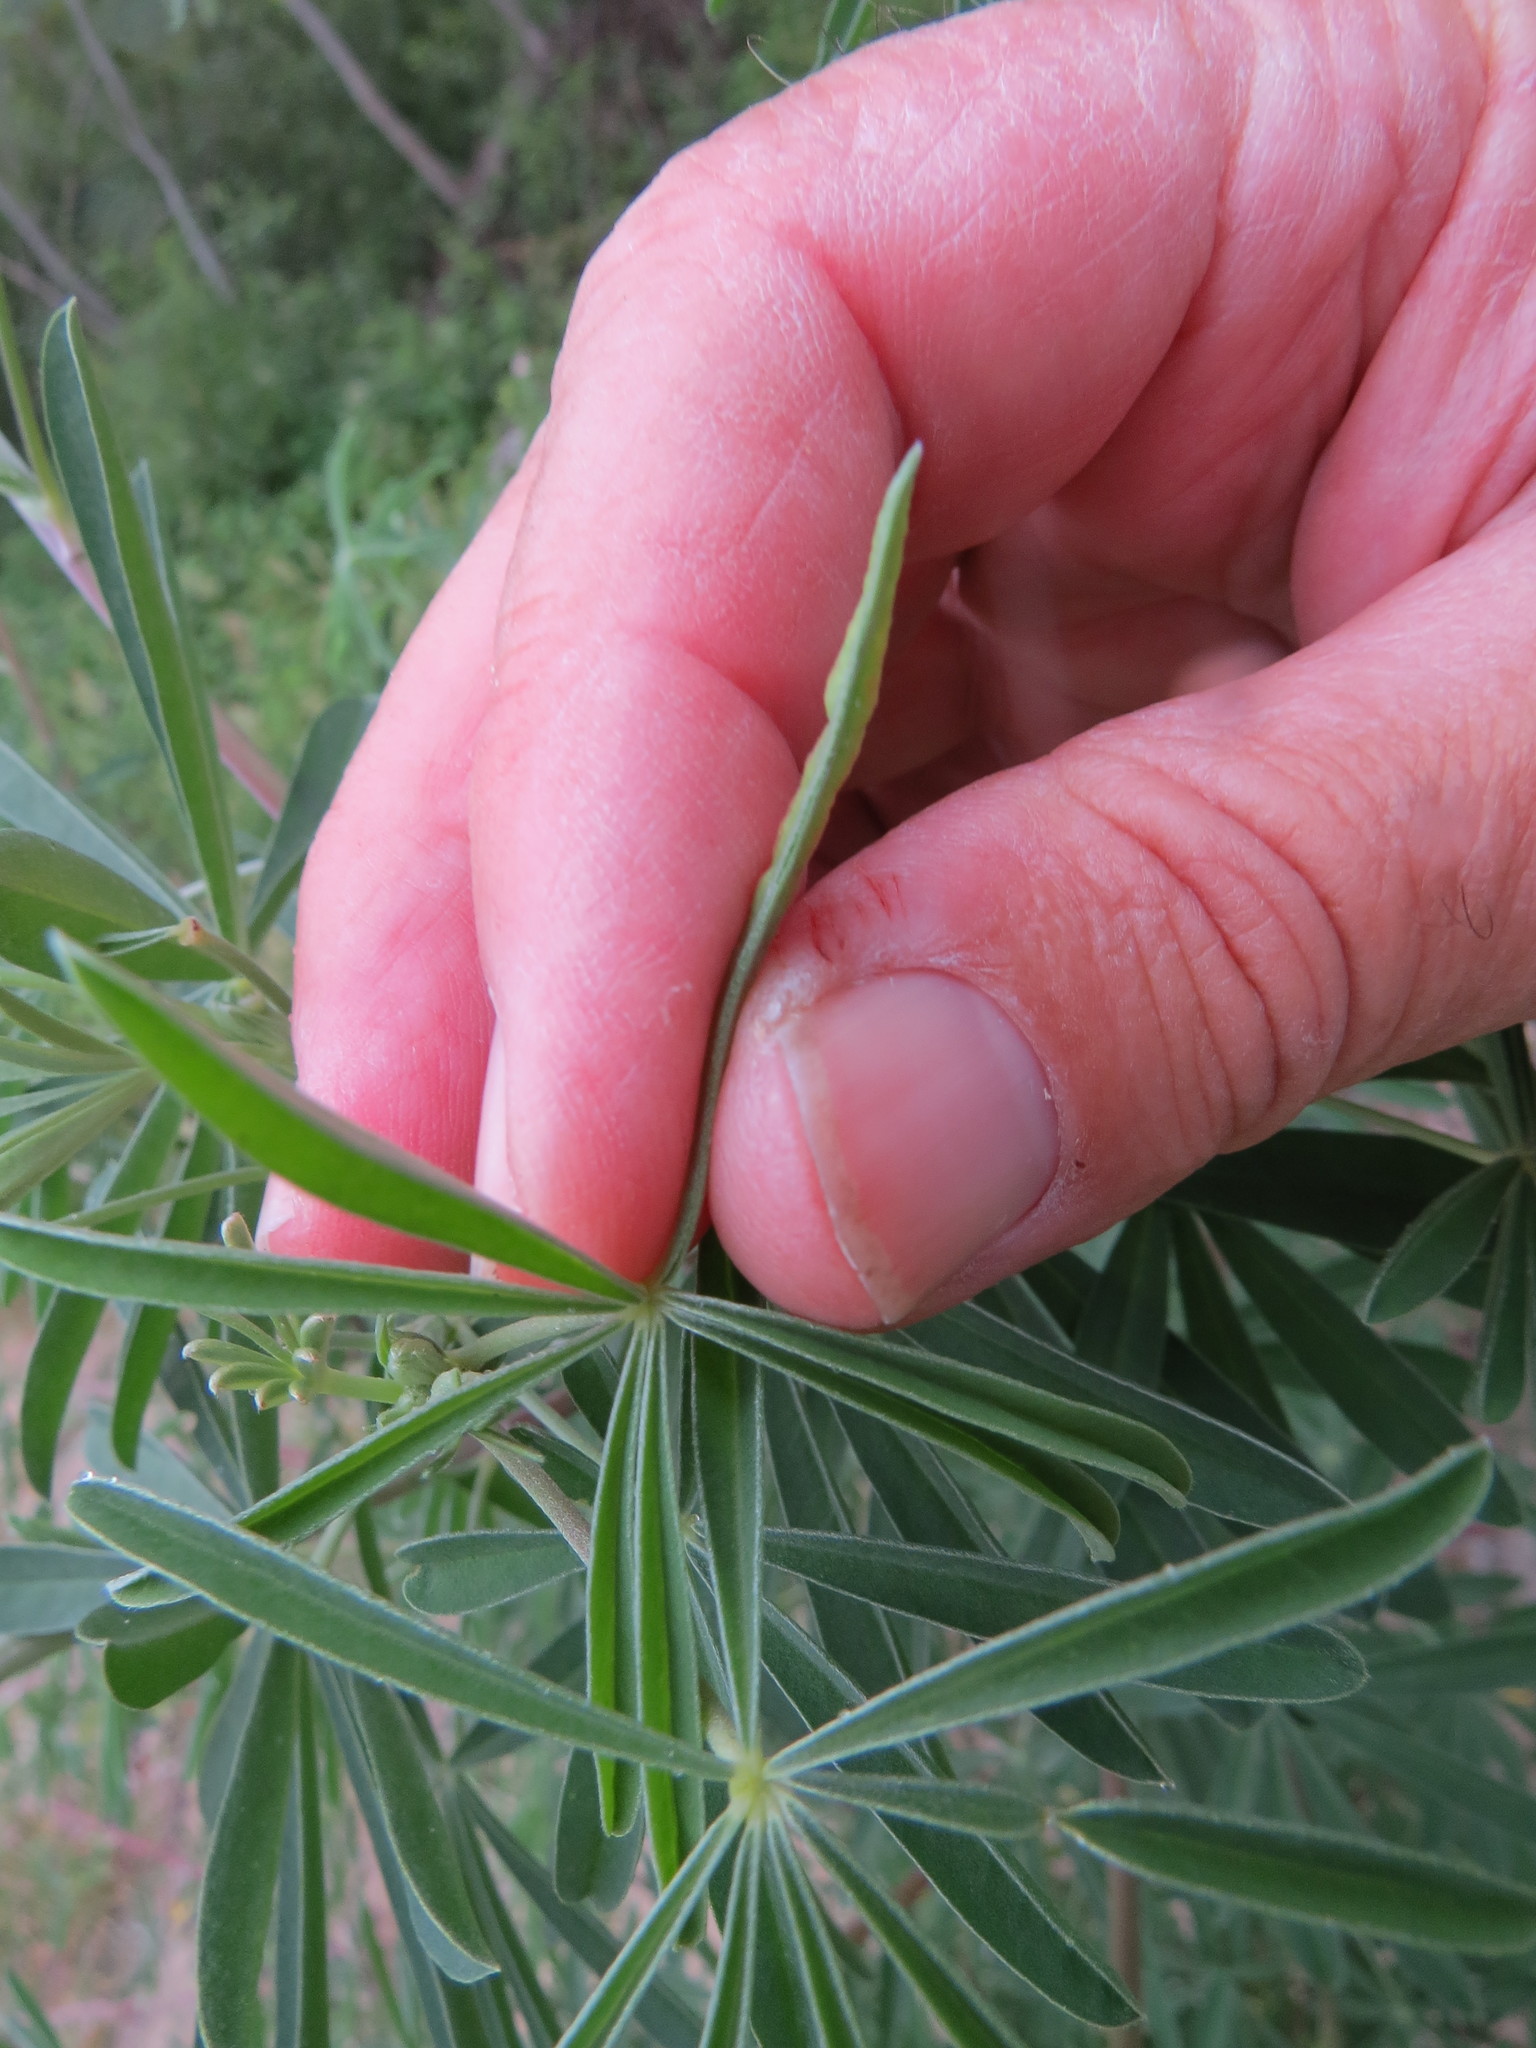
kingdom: Animalia
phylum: Arthropoda
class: Insecta
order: Diptera
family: Cecidomyiidae
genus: Dasineura
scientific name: Dasineura lupinorum
